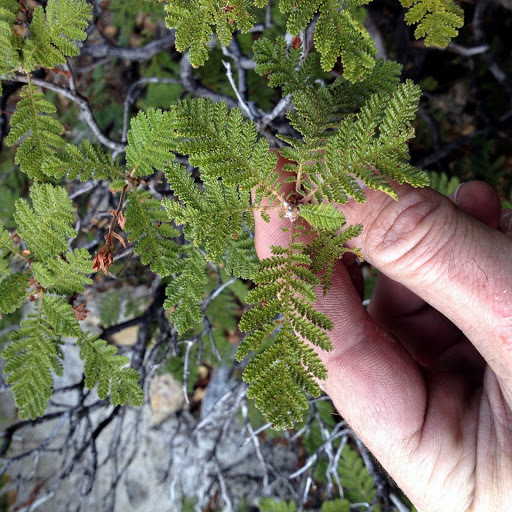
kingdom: Plantae
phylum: Tracheophyta
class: Magnoliopsida
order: Rosales
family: Rosaceae
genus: Chamaebatia
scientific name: Chamaebatia foliolosa
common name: Mountain misery
